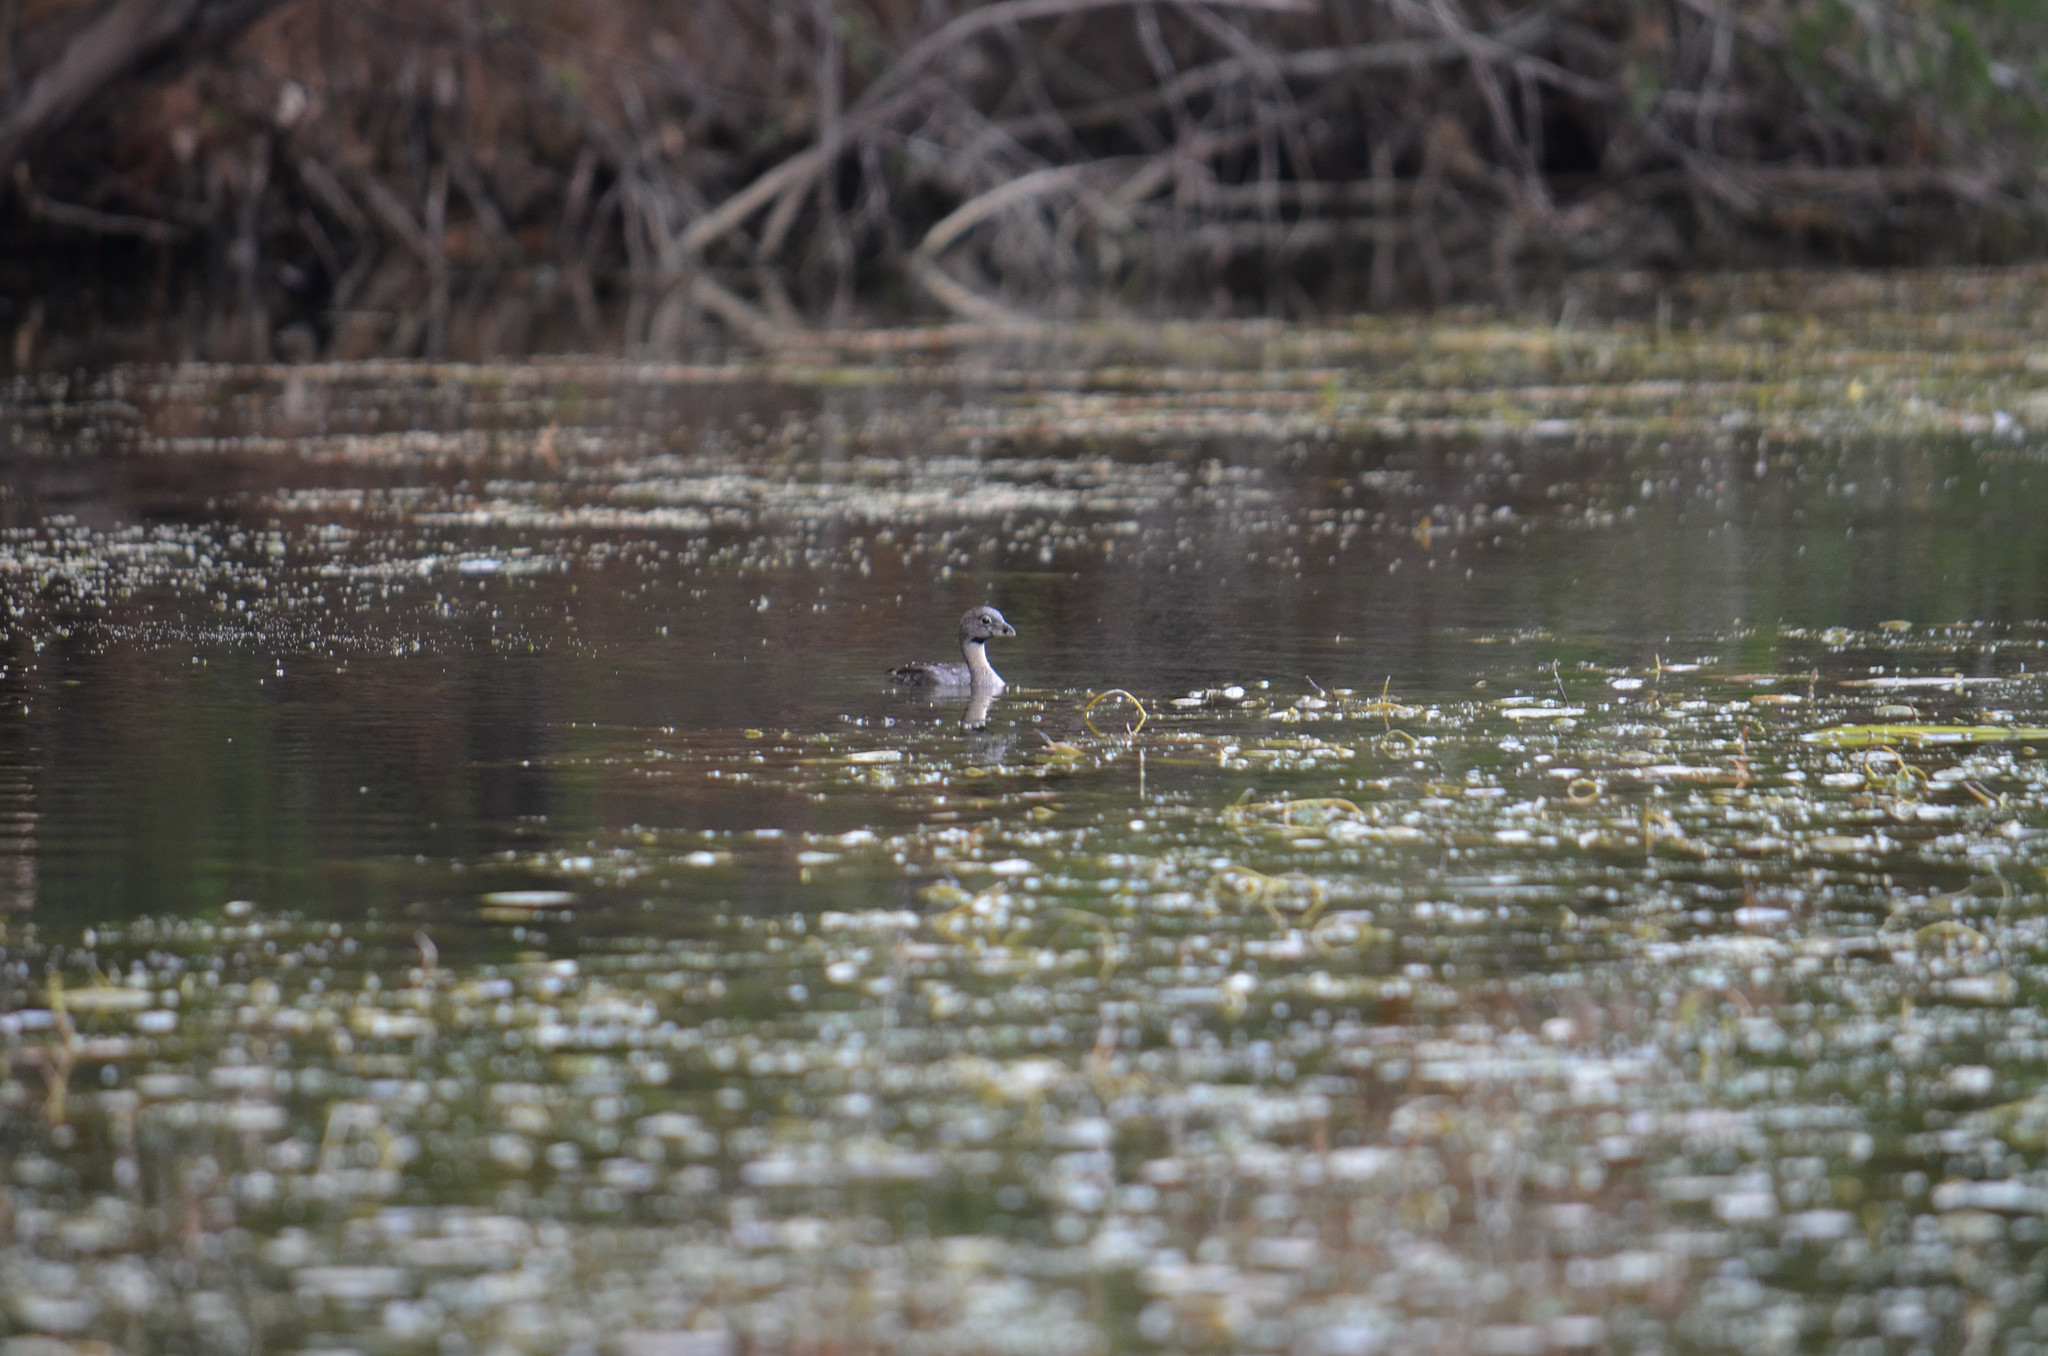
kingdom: Animalia
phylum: Chordata
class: Aves
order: Podicipediformes
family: Podicipedidae
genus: Podilymbus
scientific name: Podilymbus podiceps
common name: Pied-billed grebe
